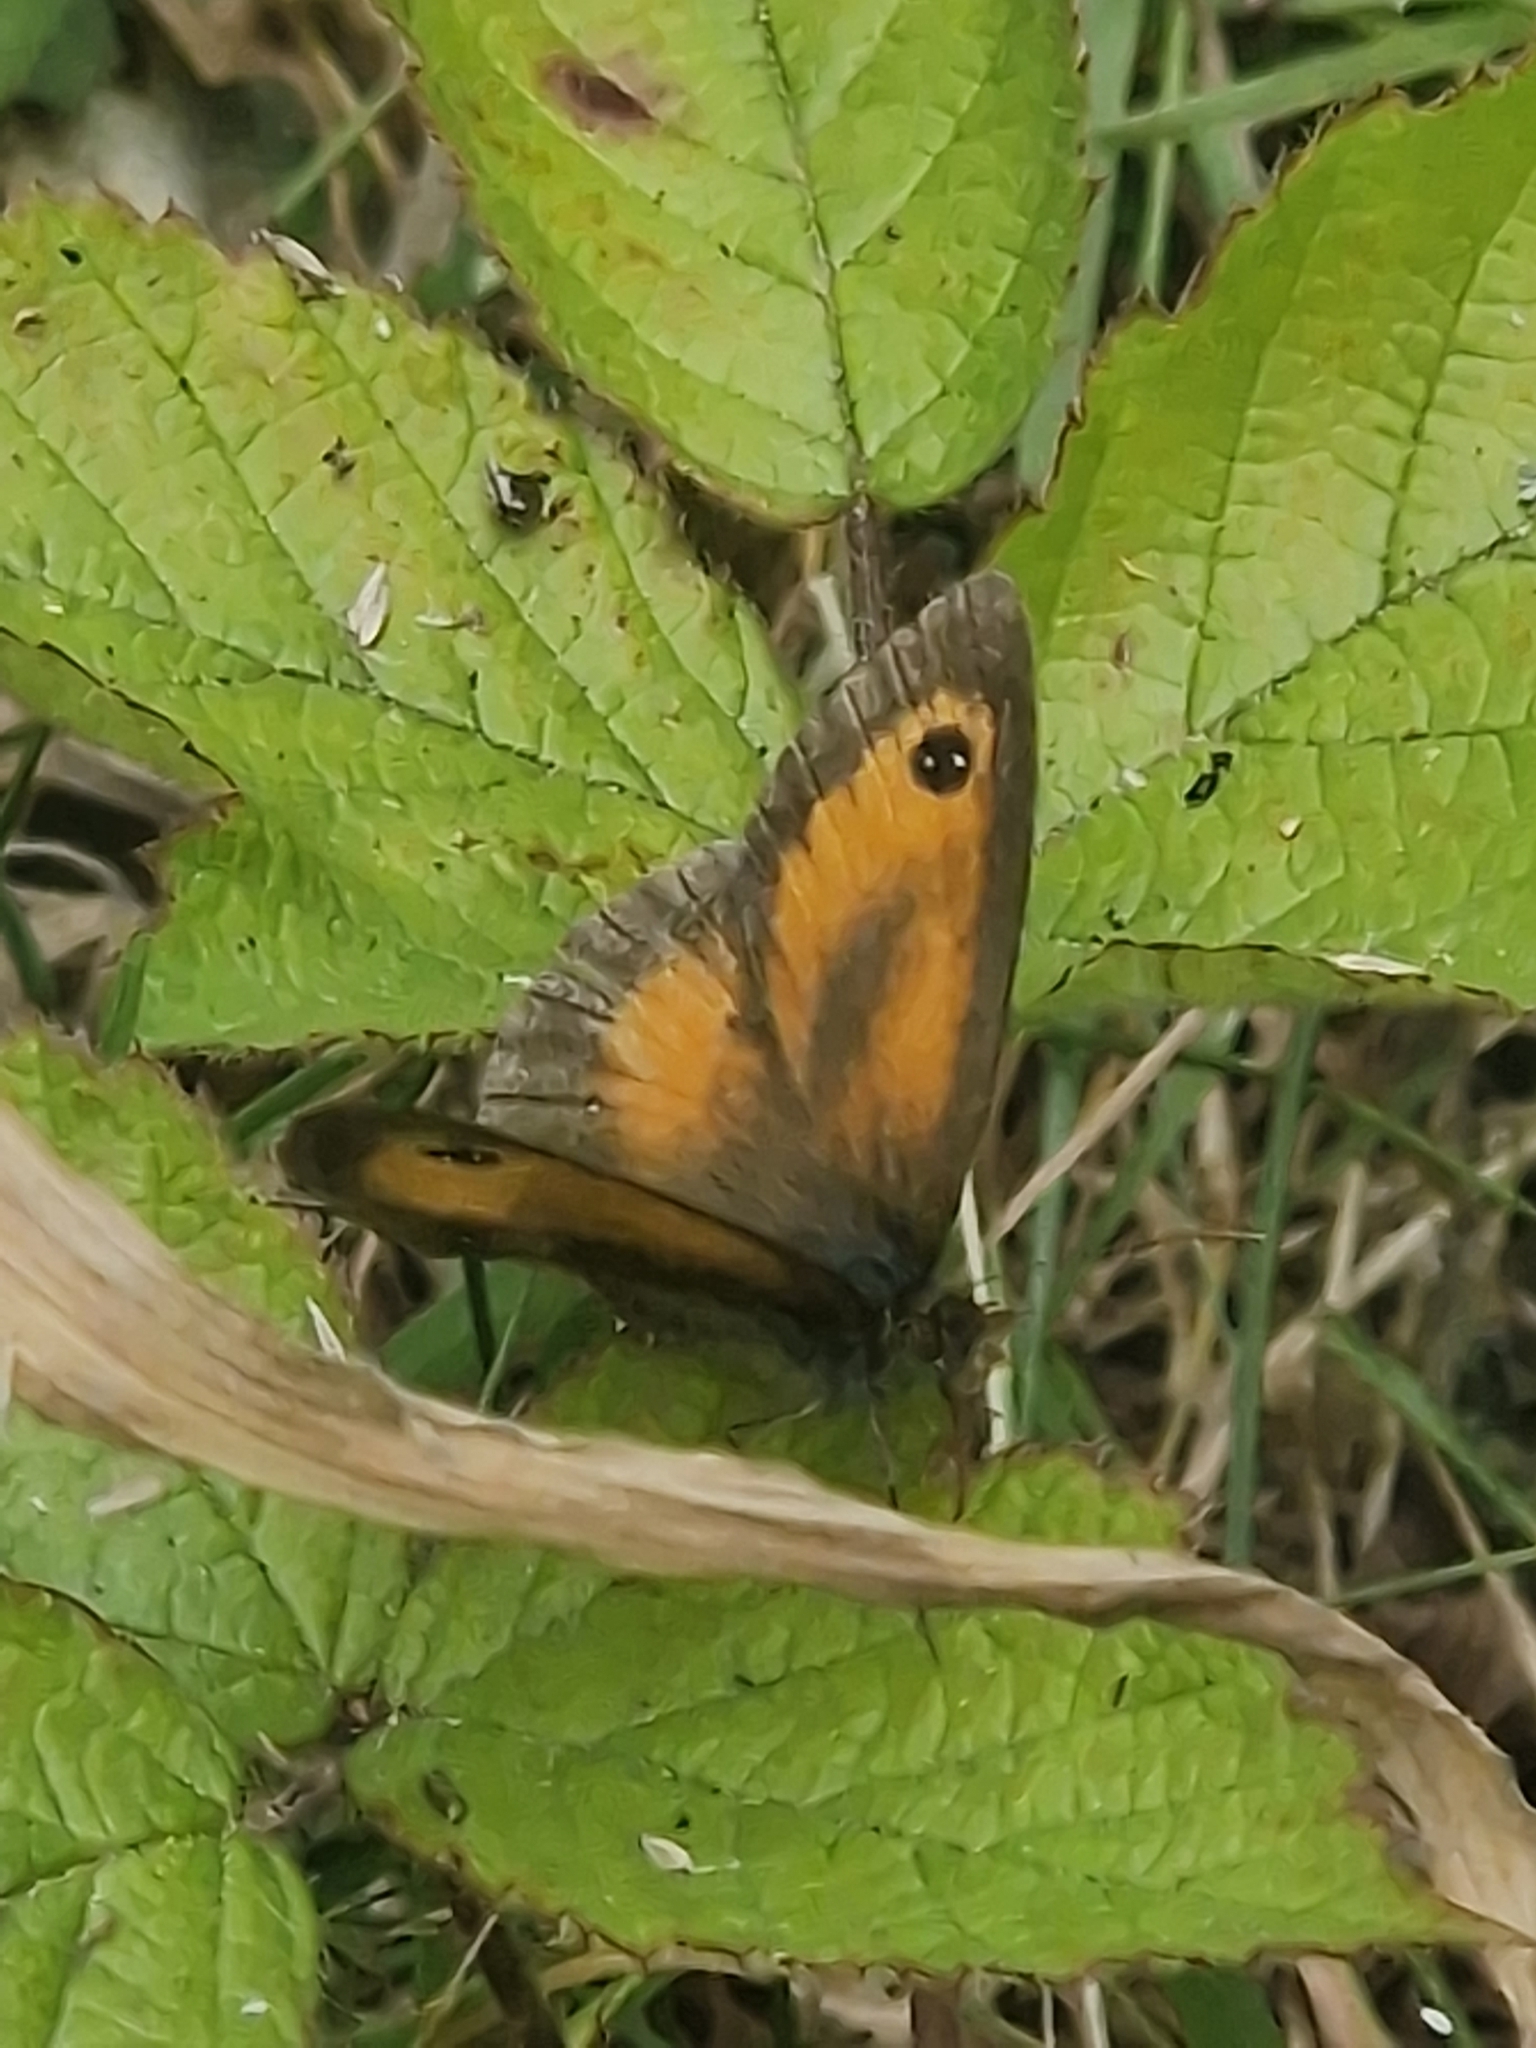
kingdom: Animalia
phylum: Arthropoda
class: Insecta
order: Lepidoptera
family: Nymphalidae
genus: Pyronia
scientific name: Pyronia tithonus
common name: Gatekeeper
